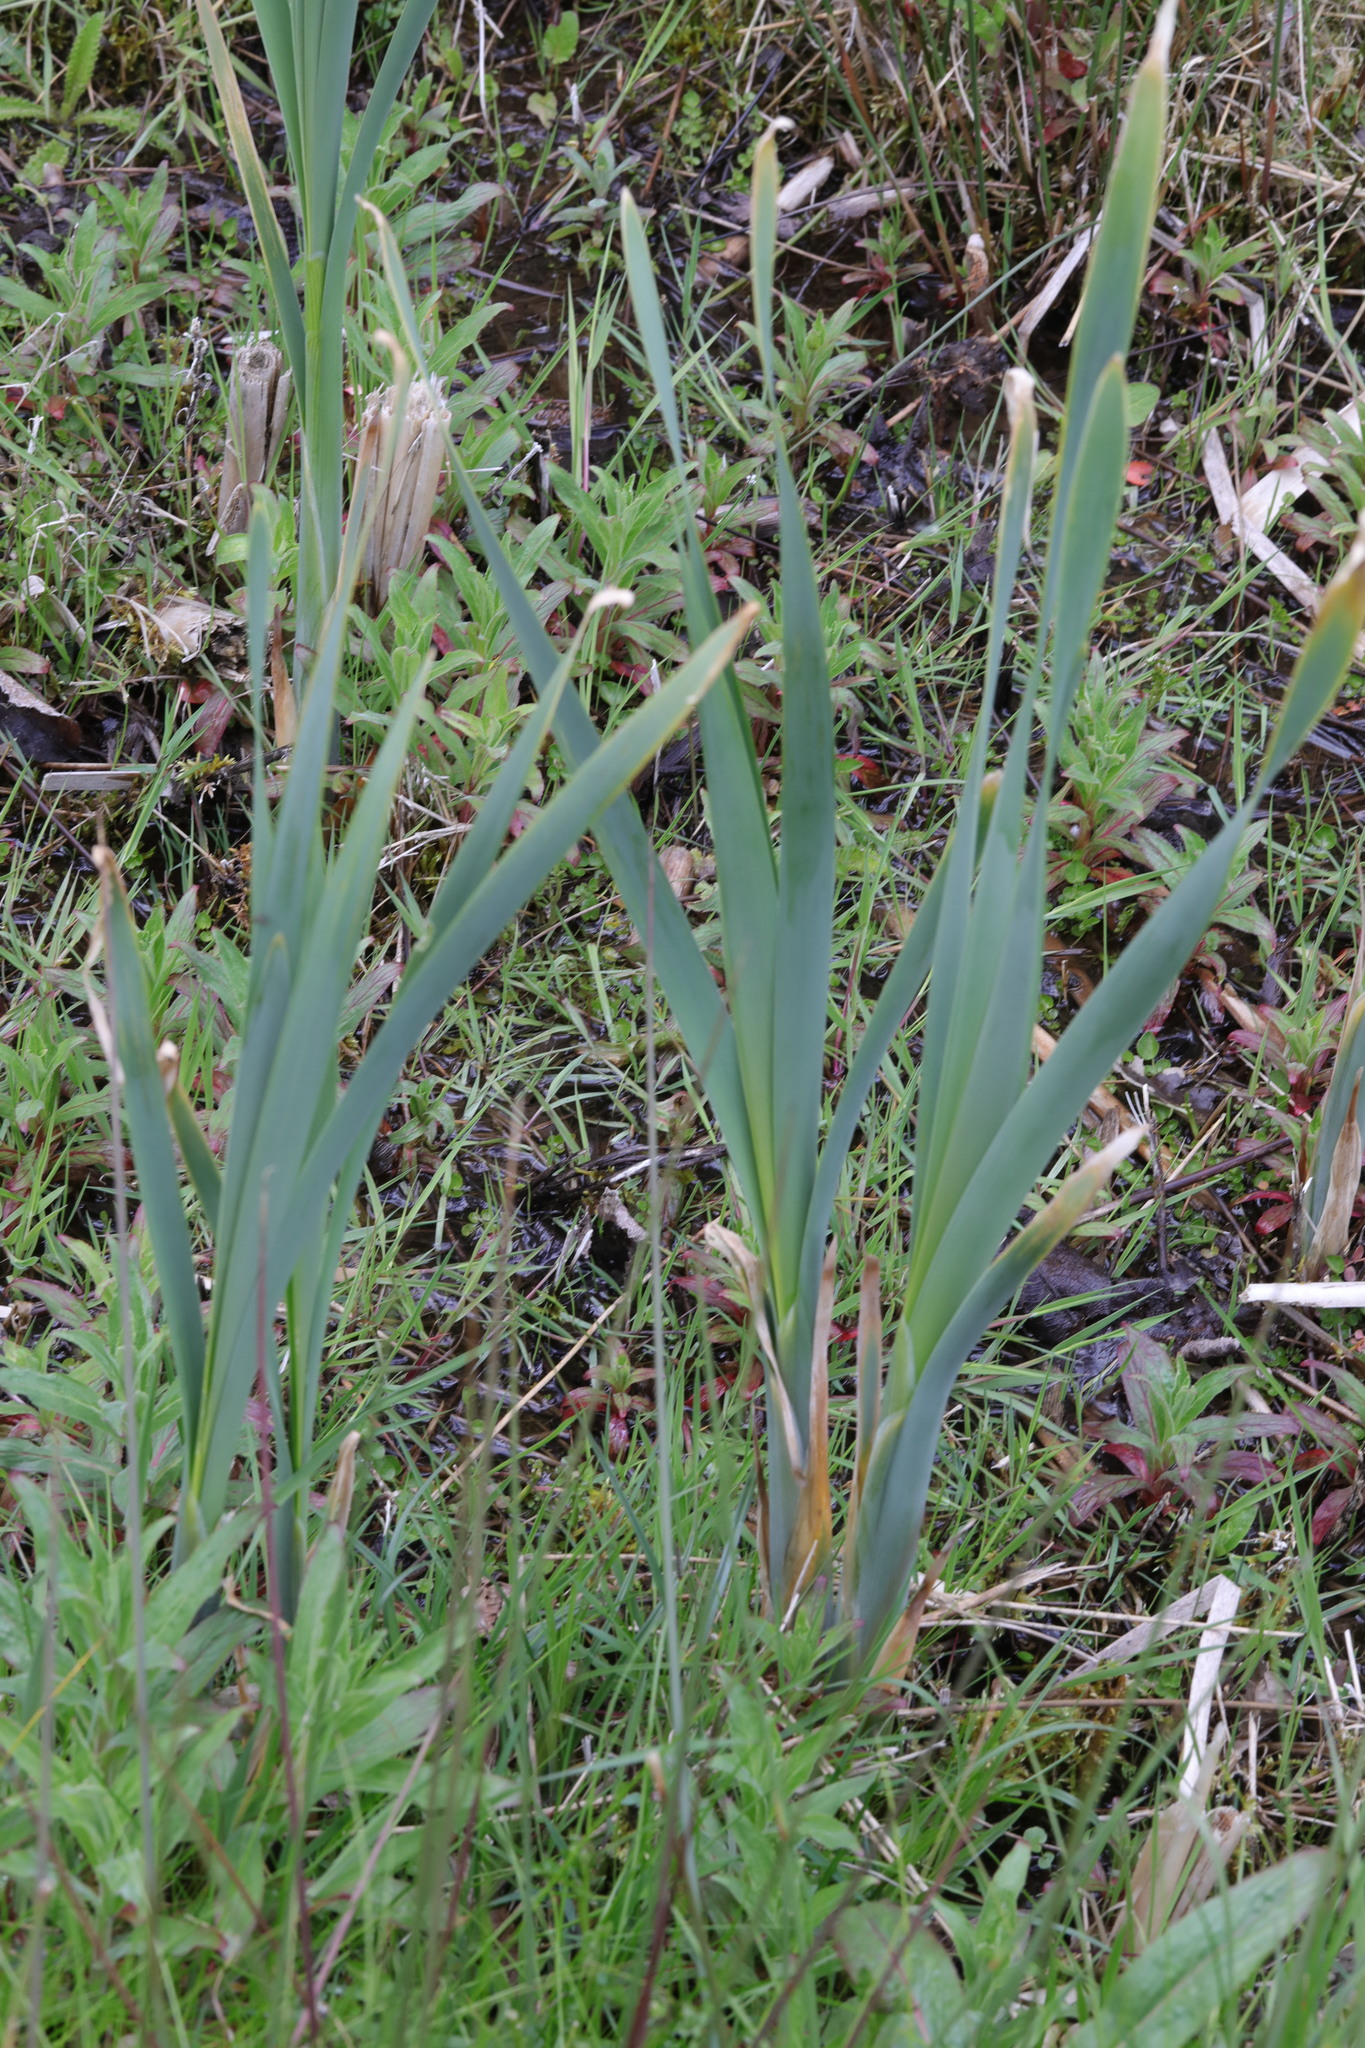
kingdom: Plantae
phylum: Tracheophyta
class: Liliopsida
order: Poales
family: Typhaceae
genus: Typha
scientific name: Typha latifolia
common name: Broadleaf cattail
